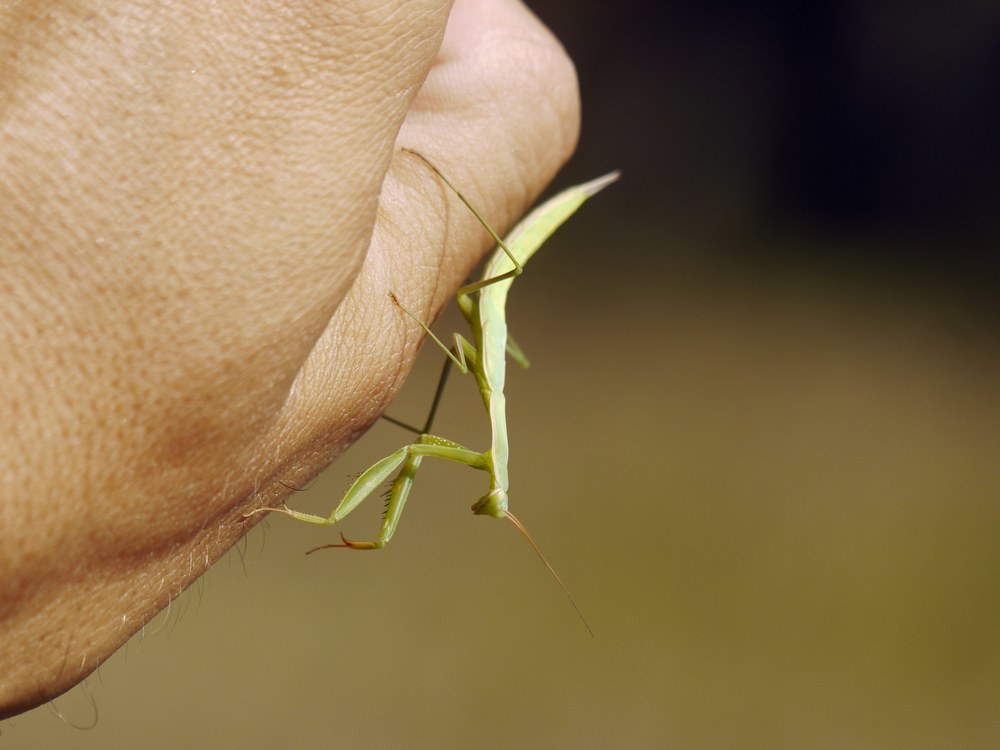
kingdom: Animalia
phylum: Arthropoda
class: Insecta
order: Mantodea
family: Mantidae
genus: Mantis
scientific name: Mantis religiosa
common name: Praying mantis
